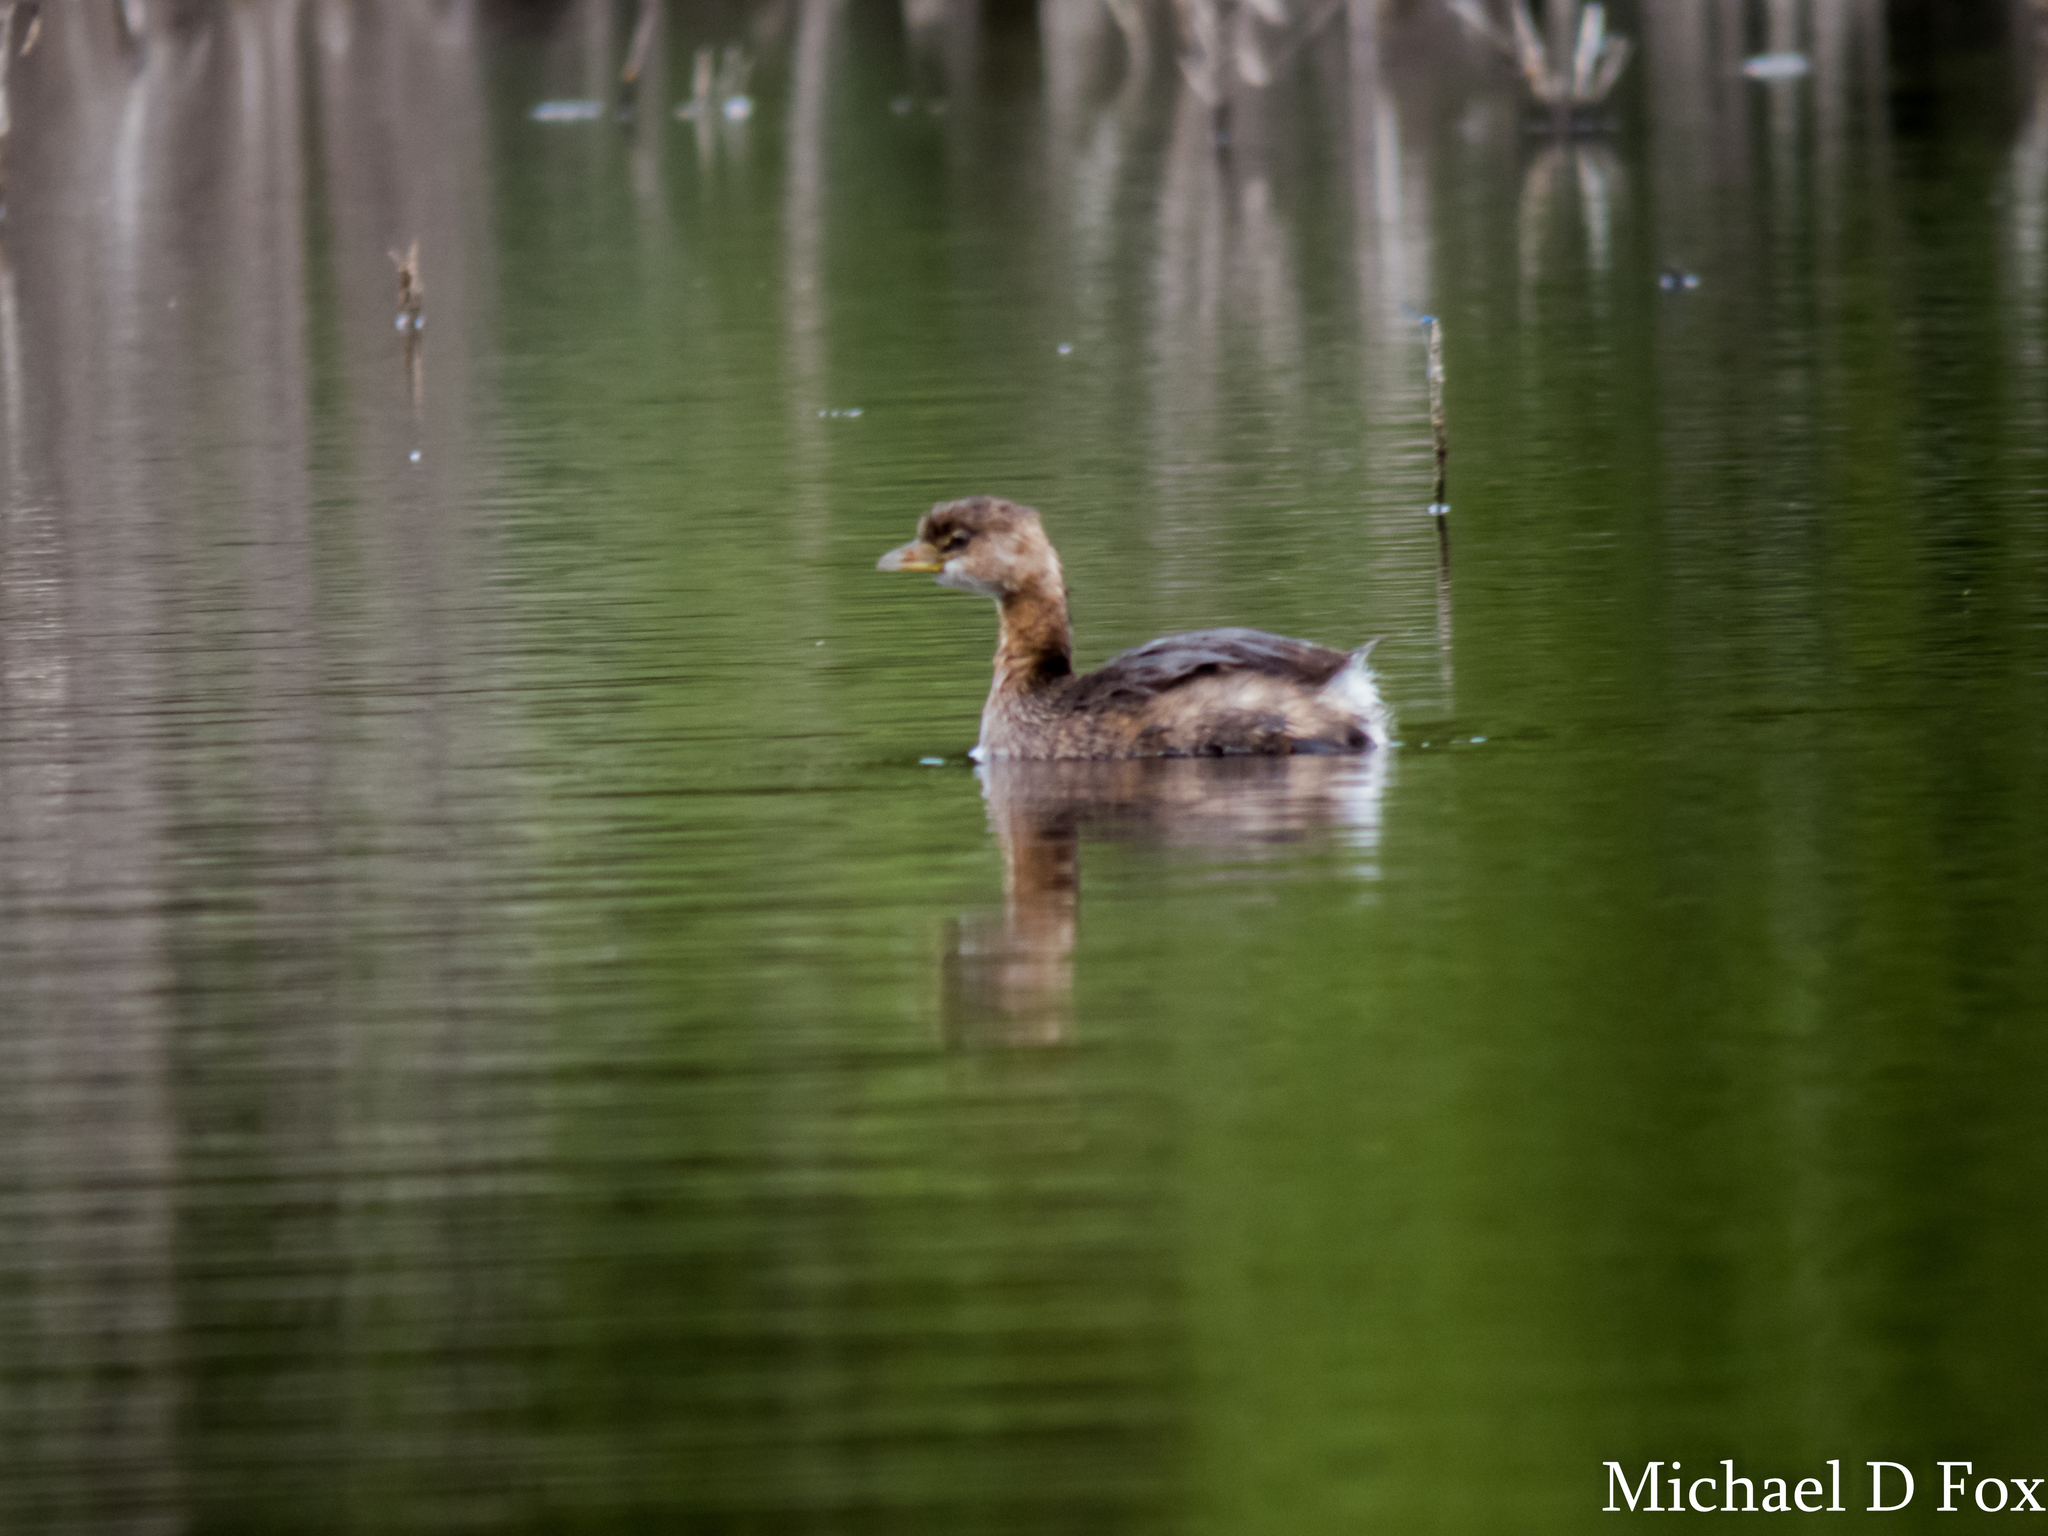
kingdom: Animalia
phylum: Chordata
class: Aves
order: Podicipediformes
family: Podicipedidae
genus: Podilymbus
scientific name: Podilymbus podiceps
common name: Pied-billed grebe
